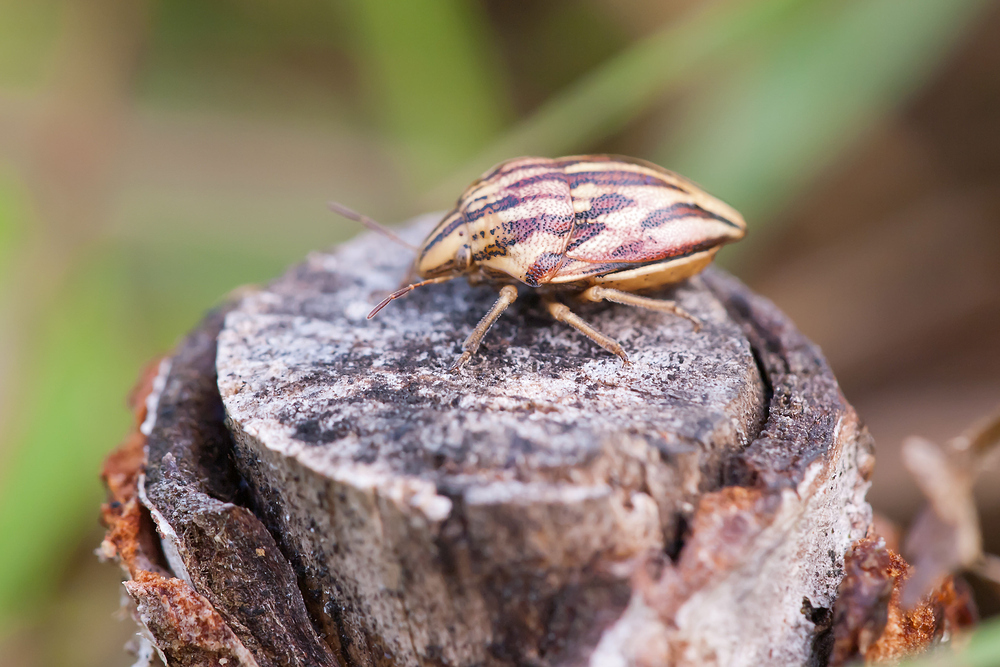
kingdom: Animalia
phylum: Arthropoda
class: Insecta
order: Hemiptera
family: Scutelleridae
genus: Odontotarsus
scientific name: Odontotarsus purpureolineatus
